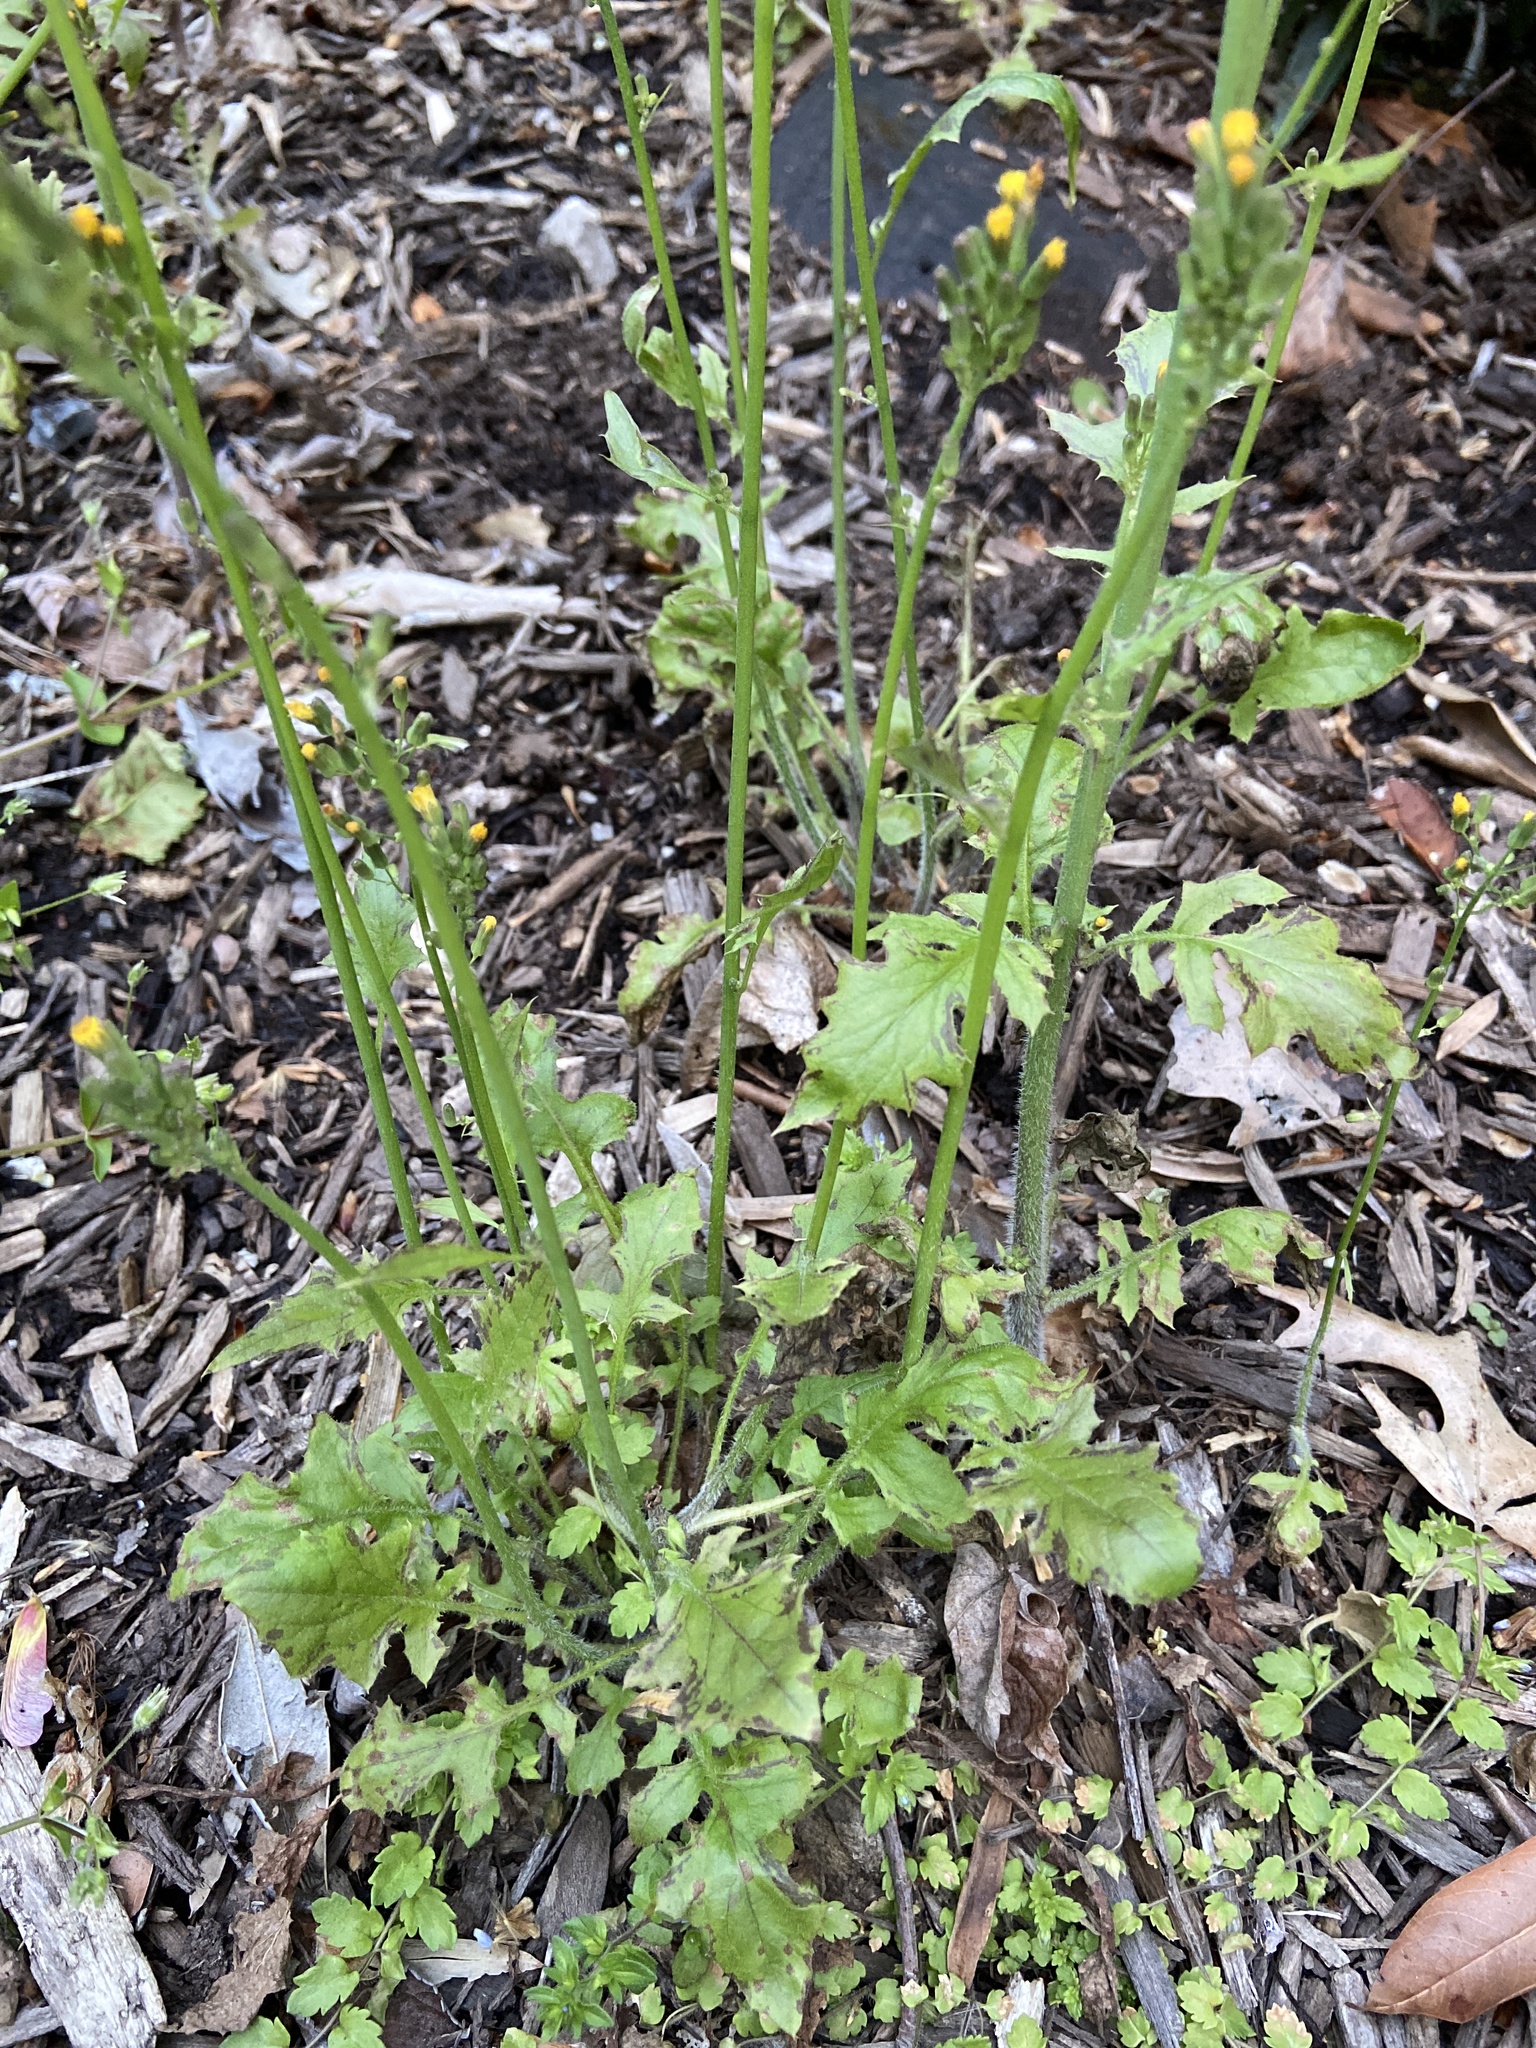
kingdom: Plantae
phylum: Tracheophyta
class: Magnoliopsida
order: Asterales
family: Asteraceae
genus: Youngia
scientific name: Youngia japonica
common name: Oriental false hawksbeard
